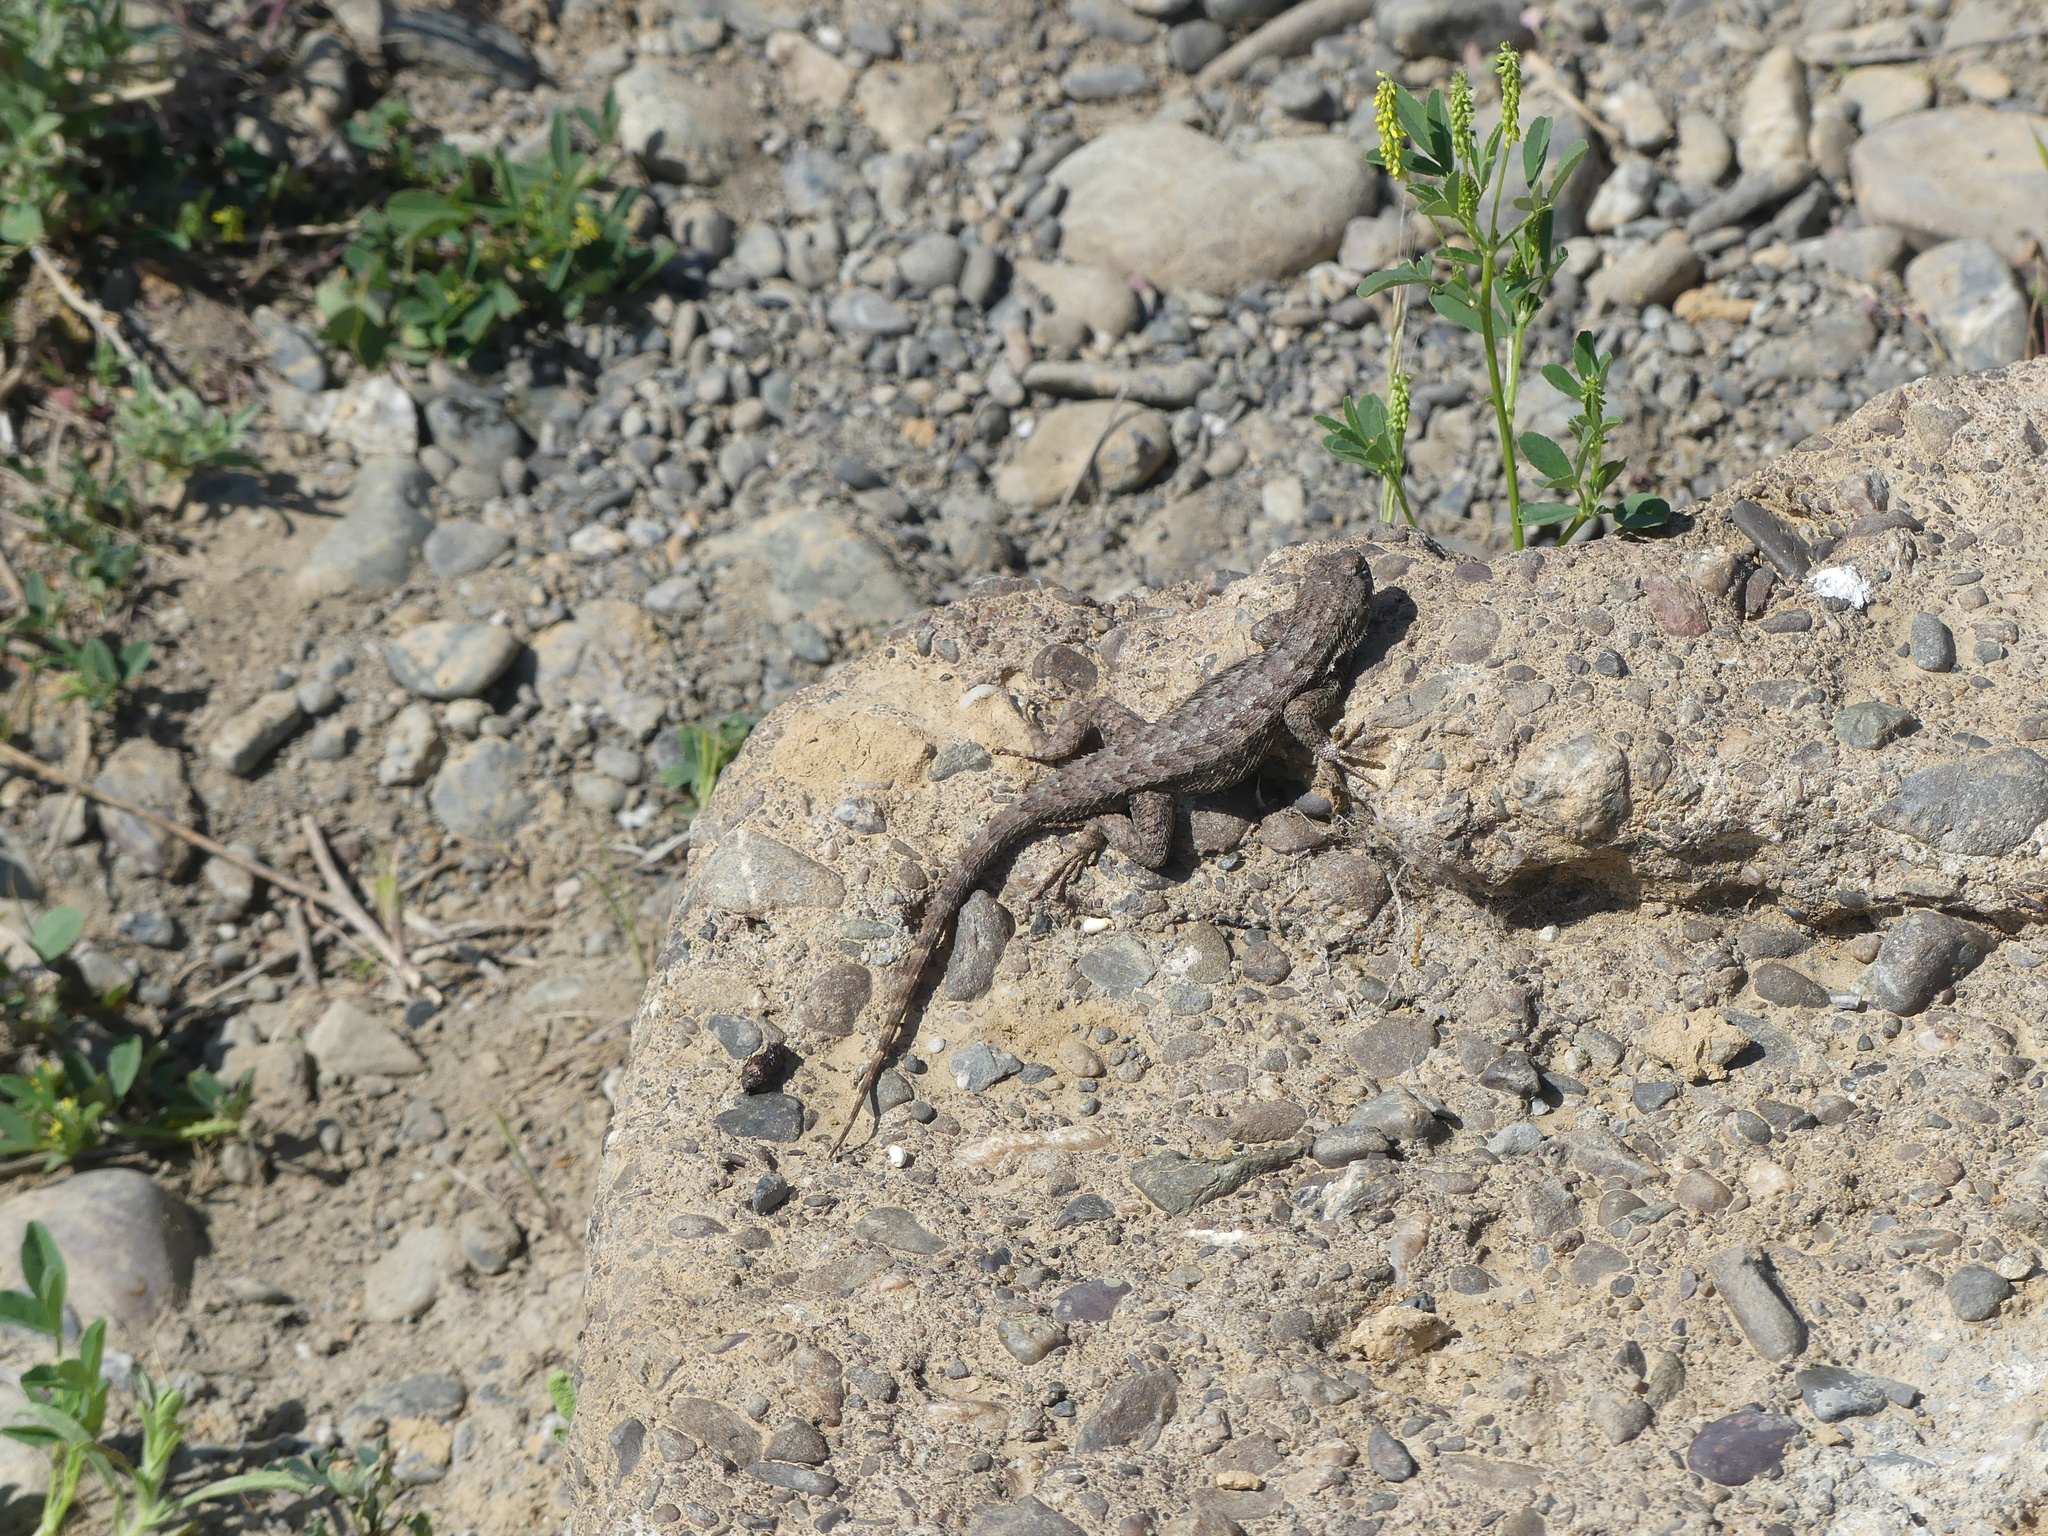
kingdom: Animalia
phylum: Chordata
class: Squamata
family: Phrynosomatidae
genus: Sceloporus
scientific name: Sceloporus occidentalis
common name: Western fence lizard
